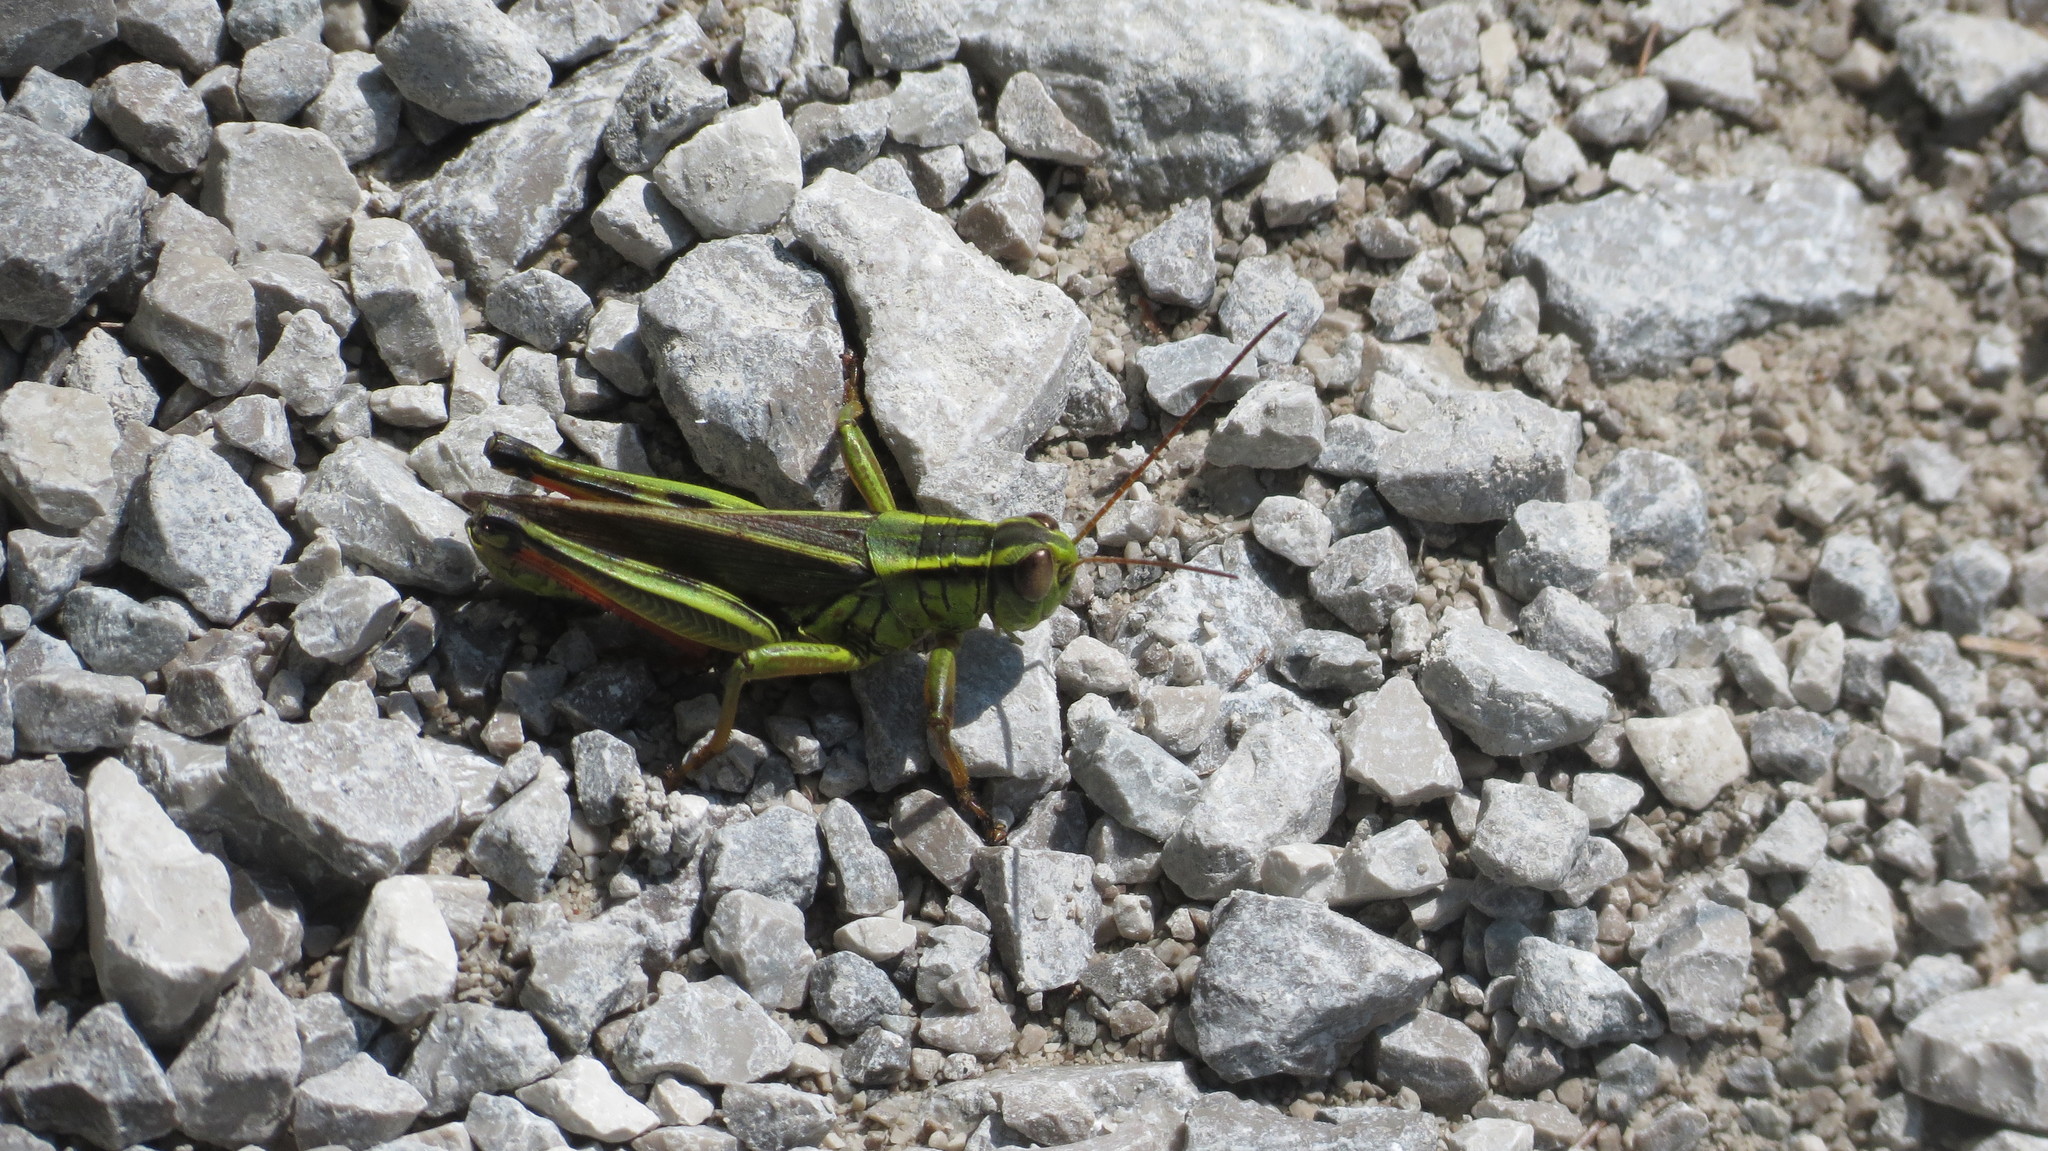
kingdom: Animalia
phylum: Arthropoda
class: Insecta
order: Orthoptera
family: Acrididae
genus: Melanoplus
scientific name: Melanoplus bivittatus
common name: Two-striped grasshopper
